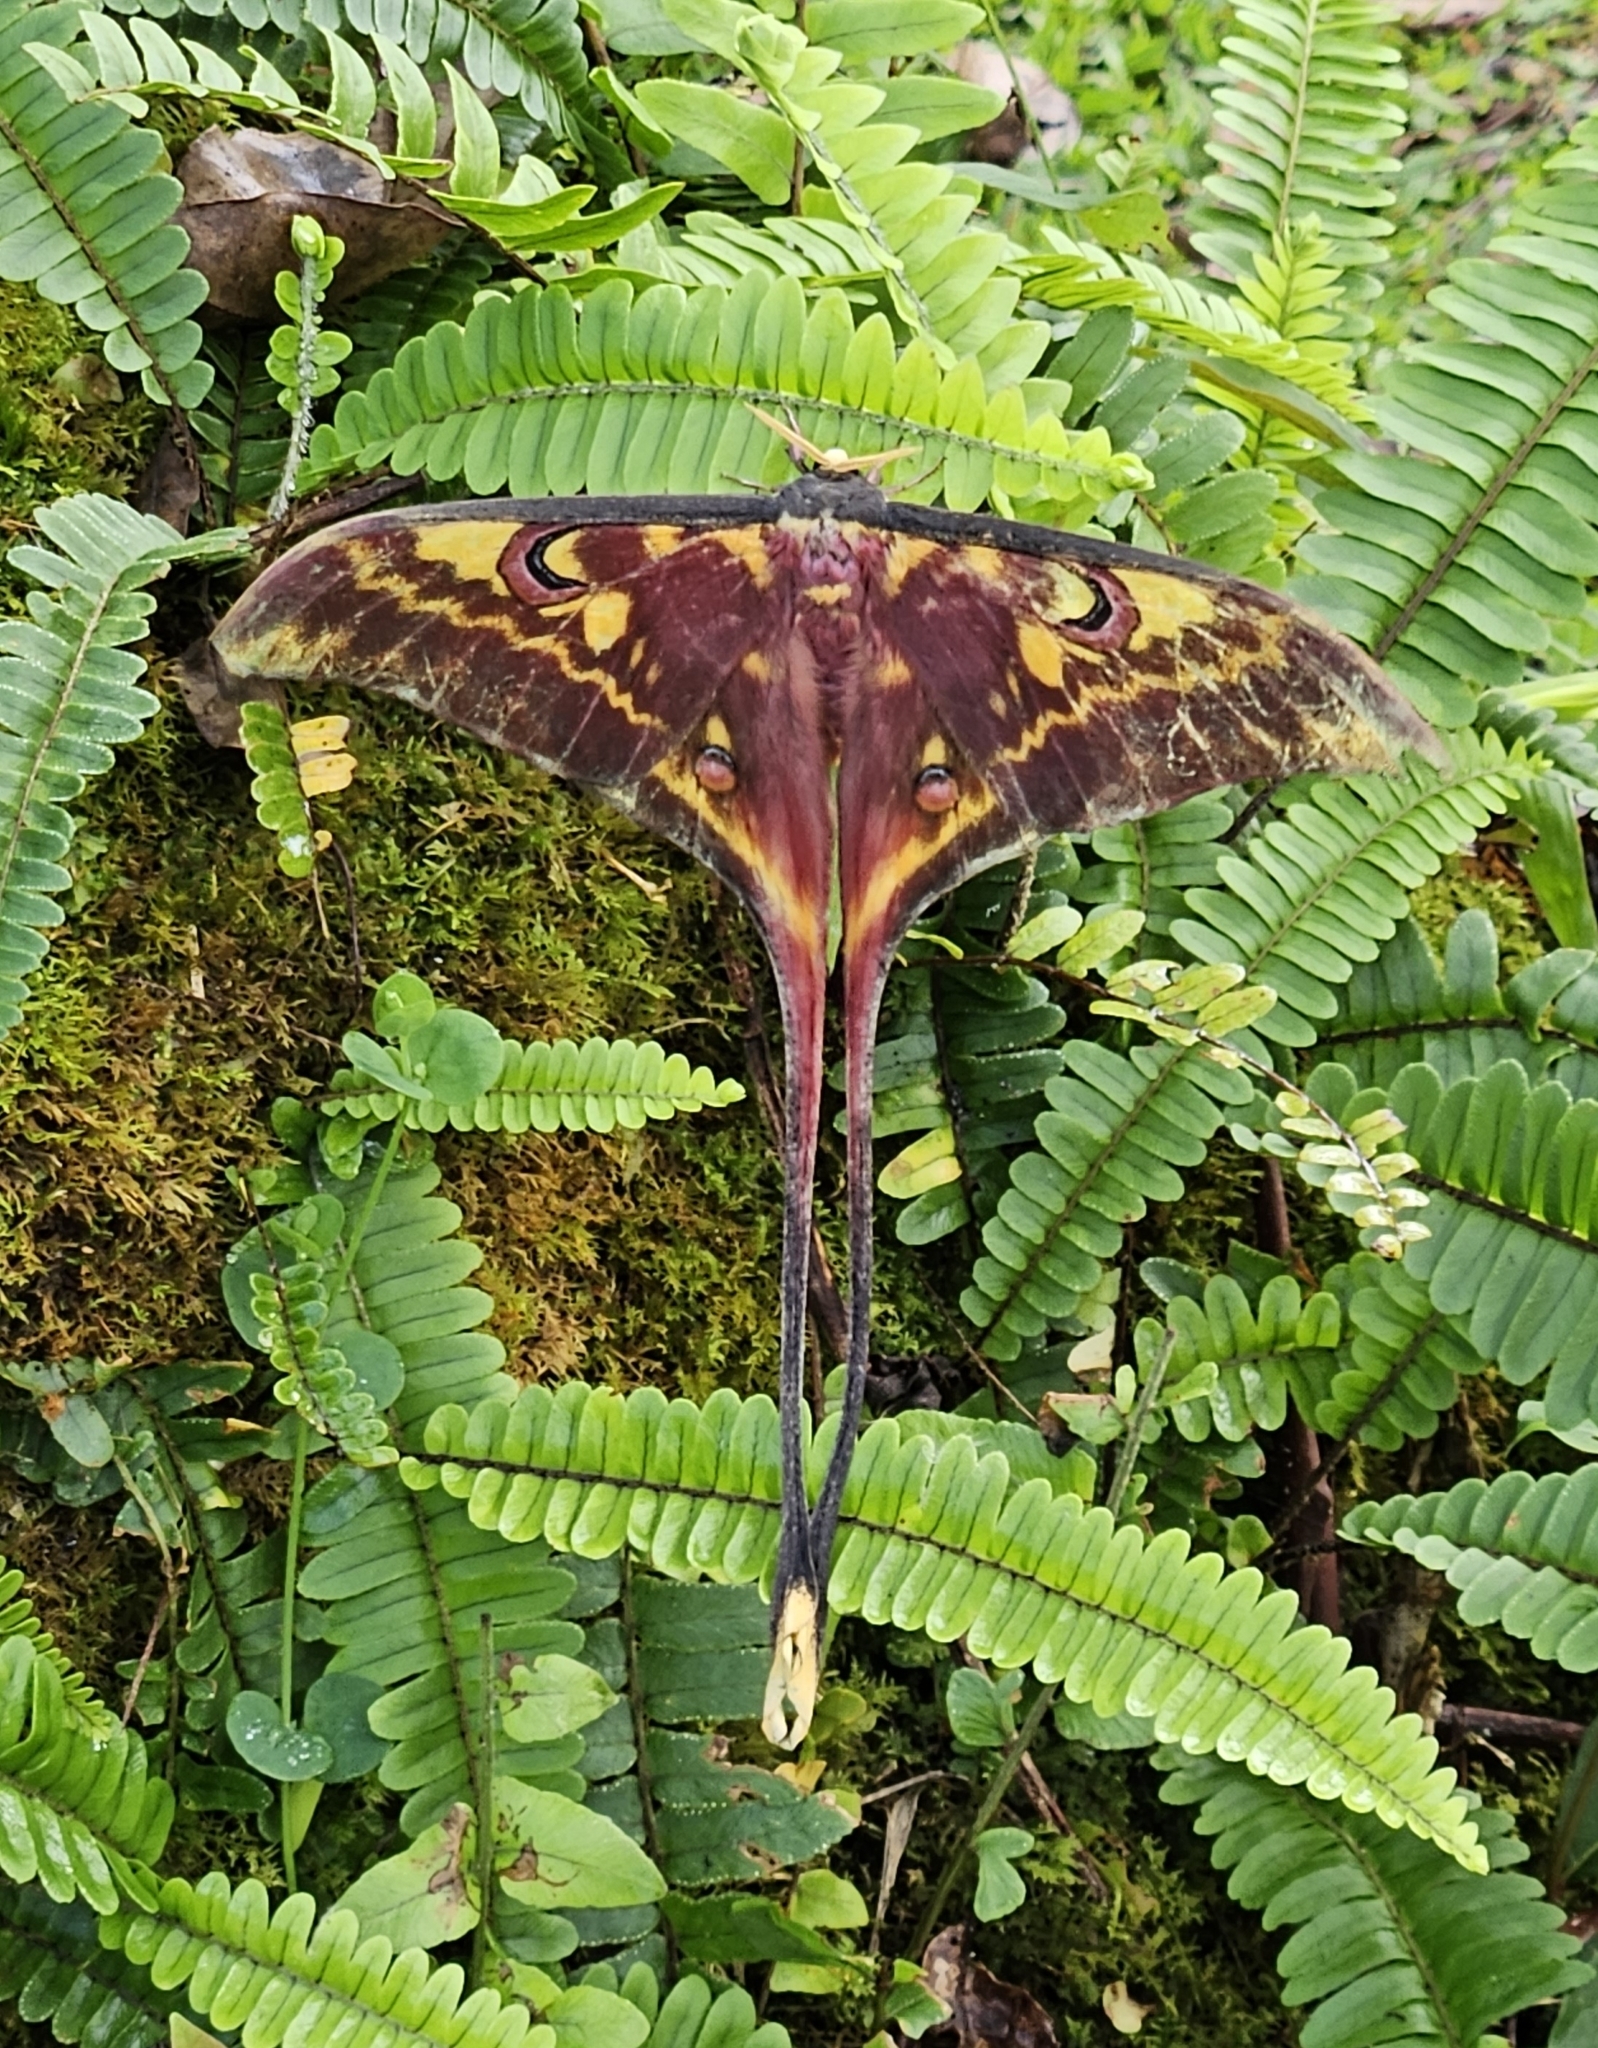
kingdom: Animalia
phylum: Arthropoda
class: Insecta
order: Lepidoptera
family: Saturniidae
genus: Actias
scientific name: Actias isis
